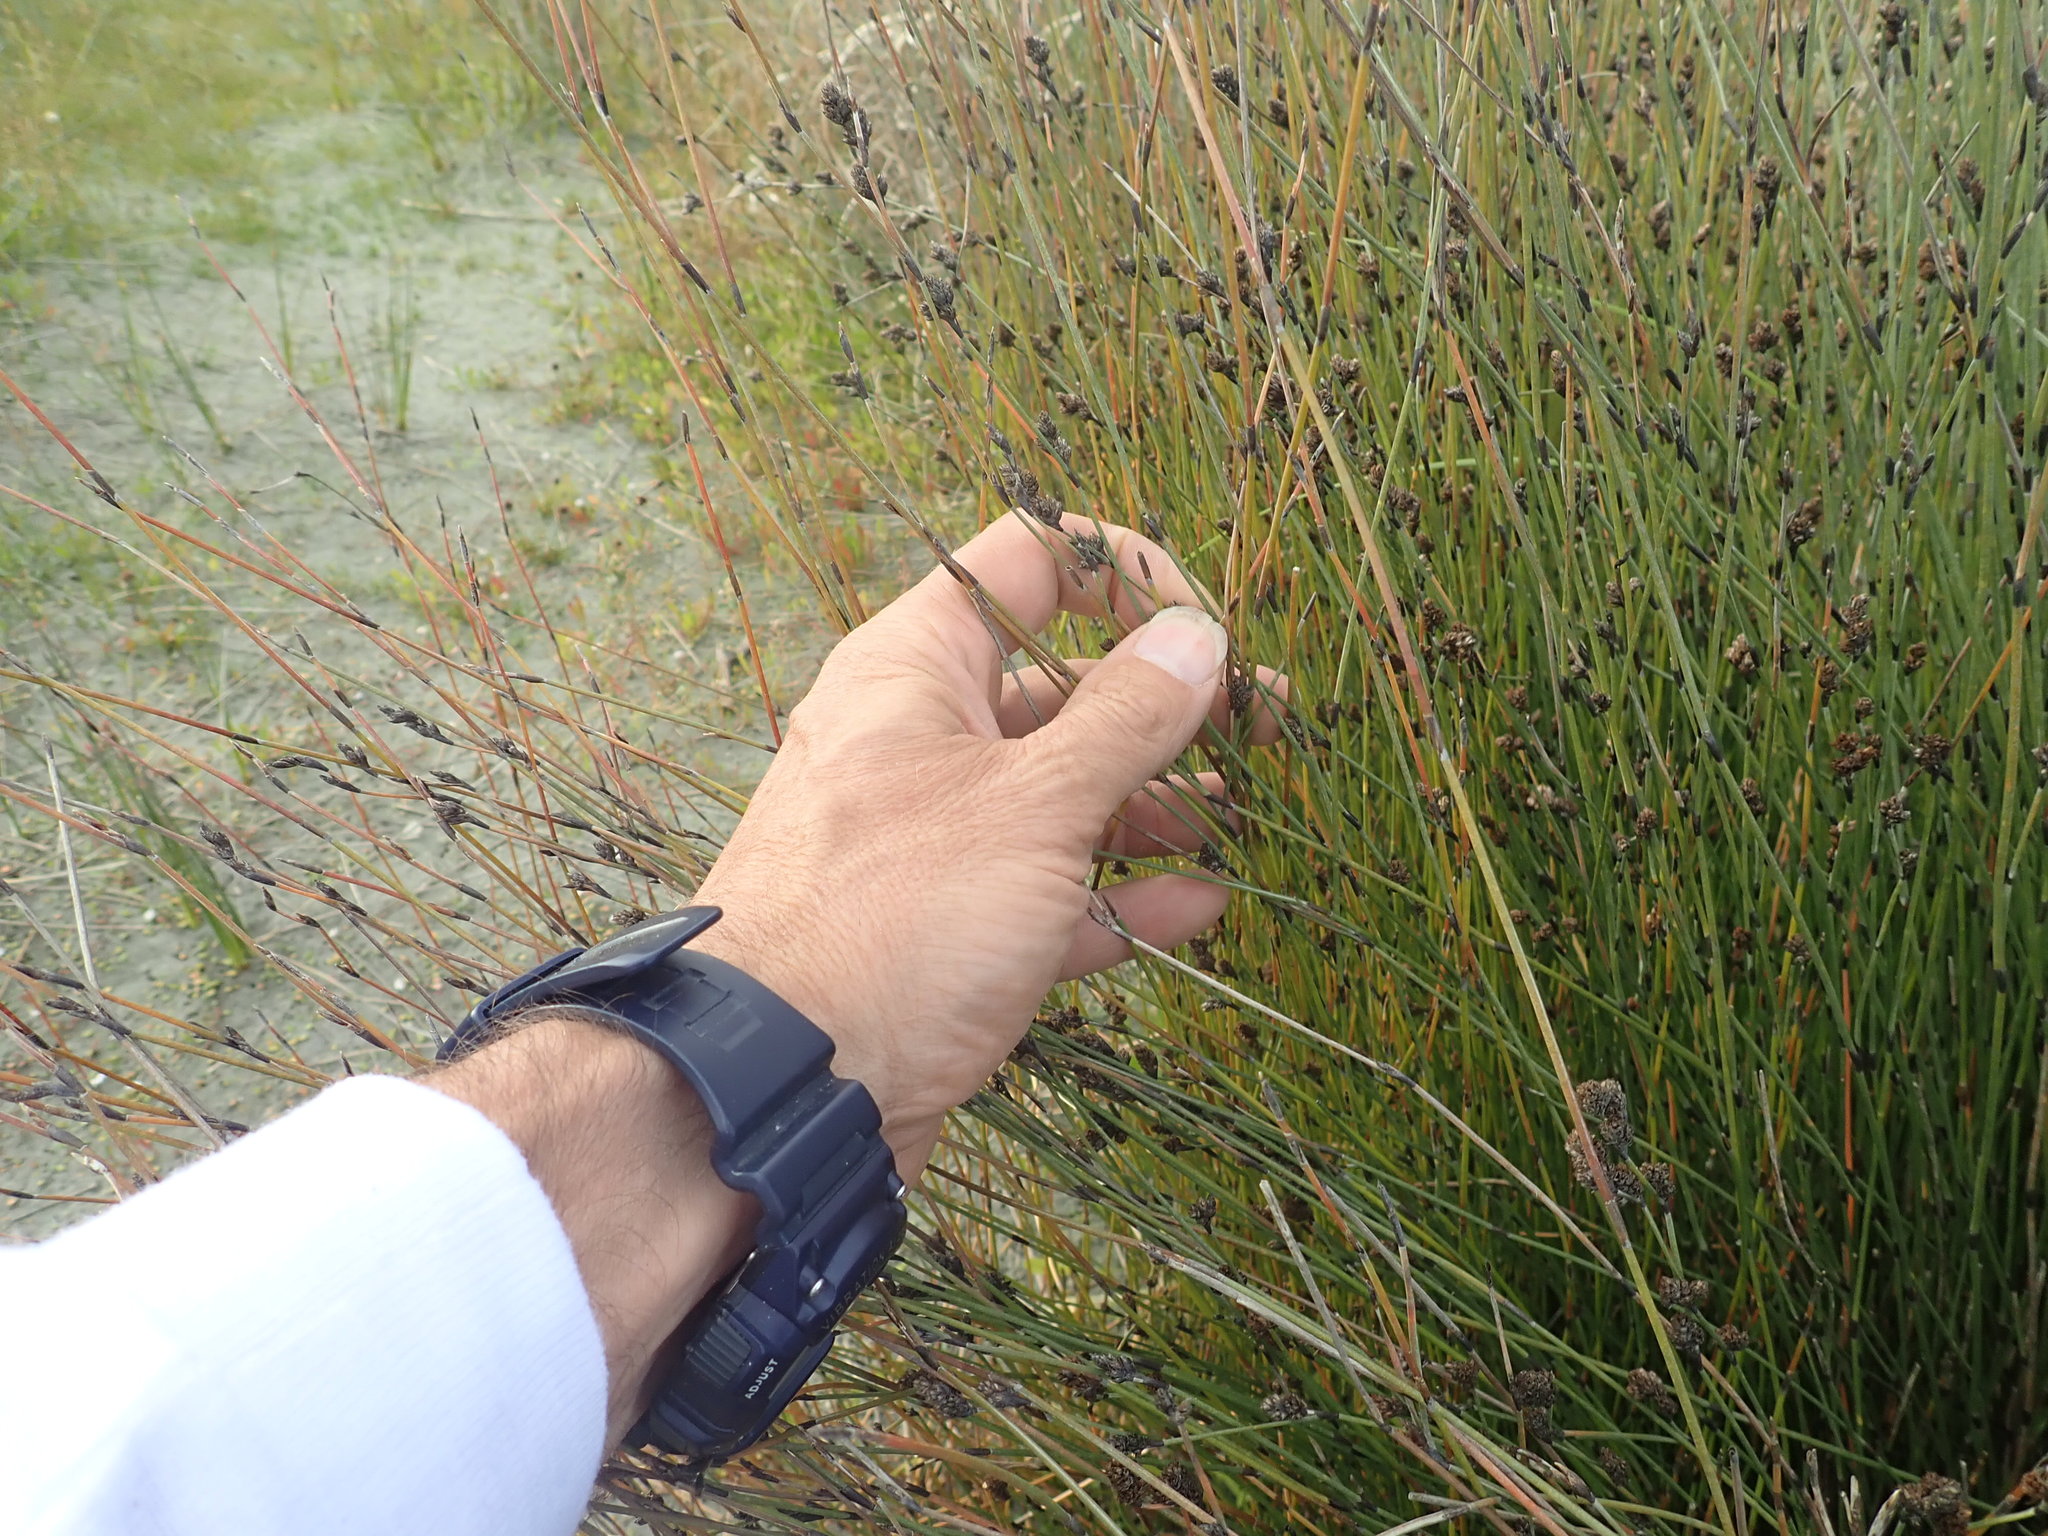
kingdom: Plantae
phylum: Tracheophyta
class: Liliopsida
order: Poales
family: Restionaceae
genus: Apodasmia
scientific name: Apodasmia similis
